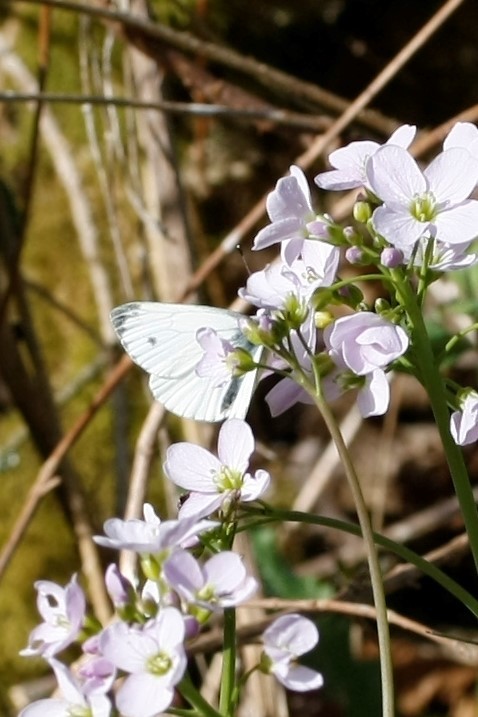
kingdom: Animalia
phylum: Arthropoda
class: Insecta
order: Lepidoptera
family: Pieridae
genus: Pieris
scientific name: Pieris napi
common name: Green-veined white
